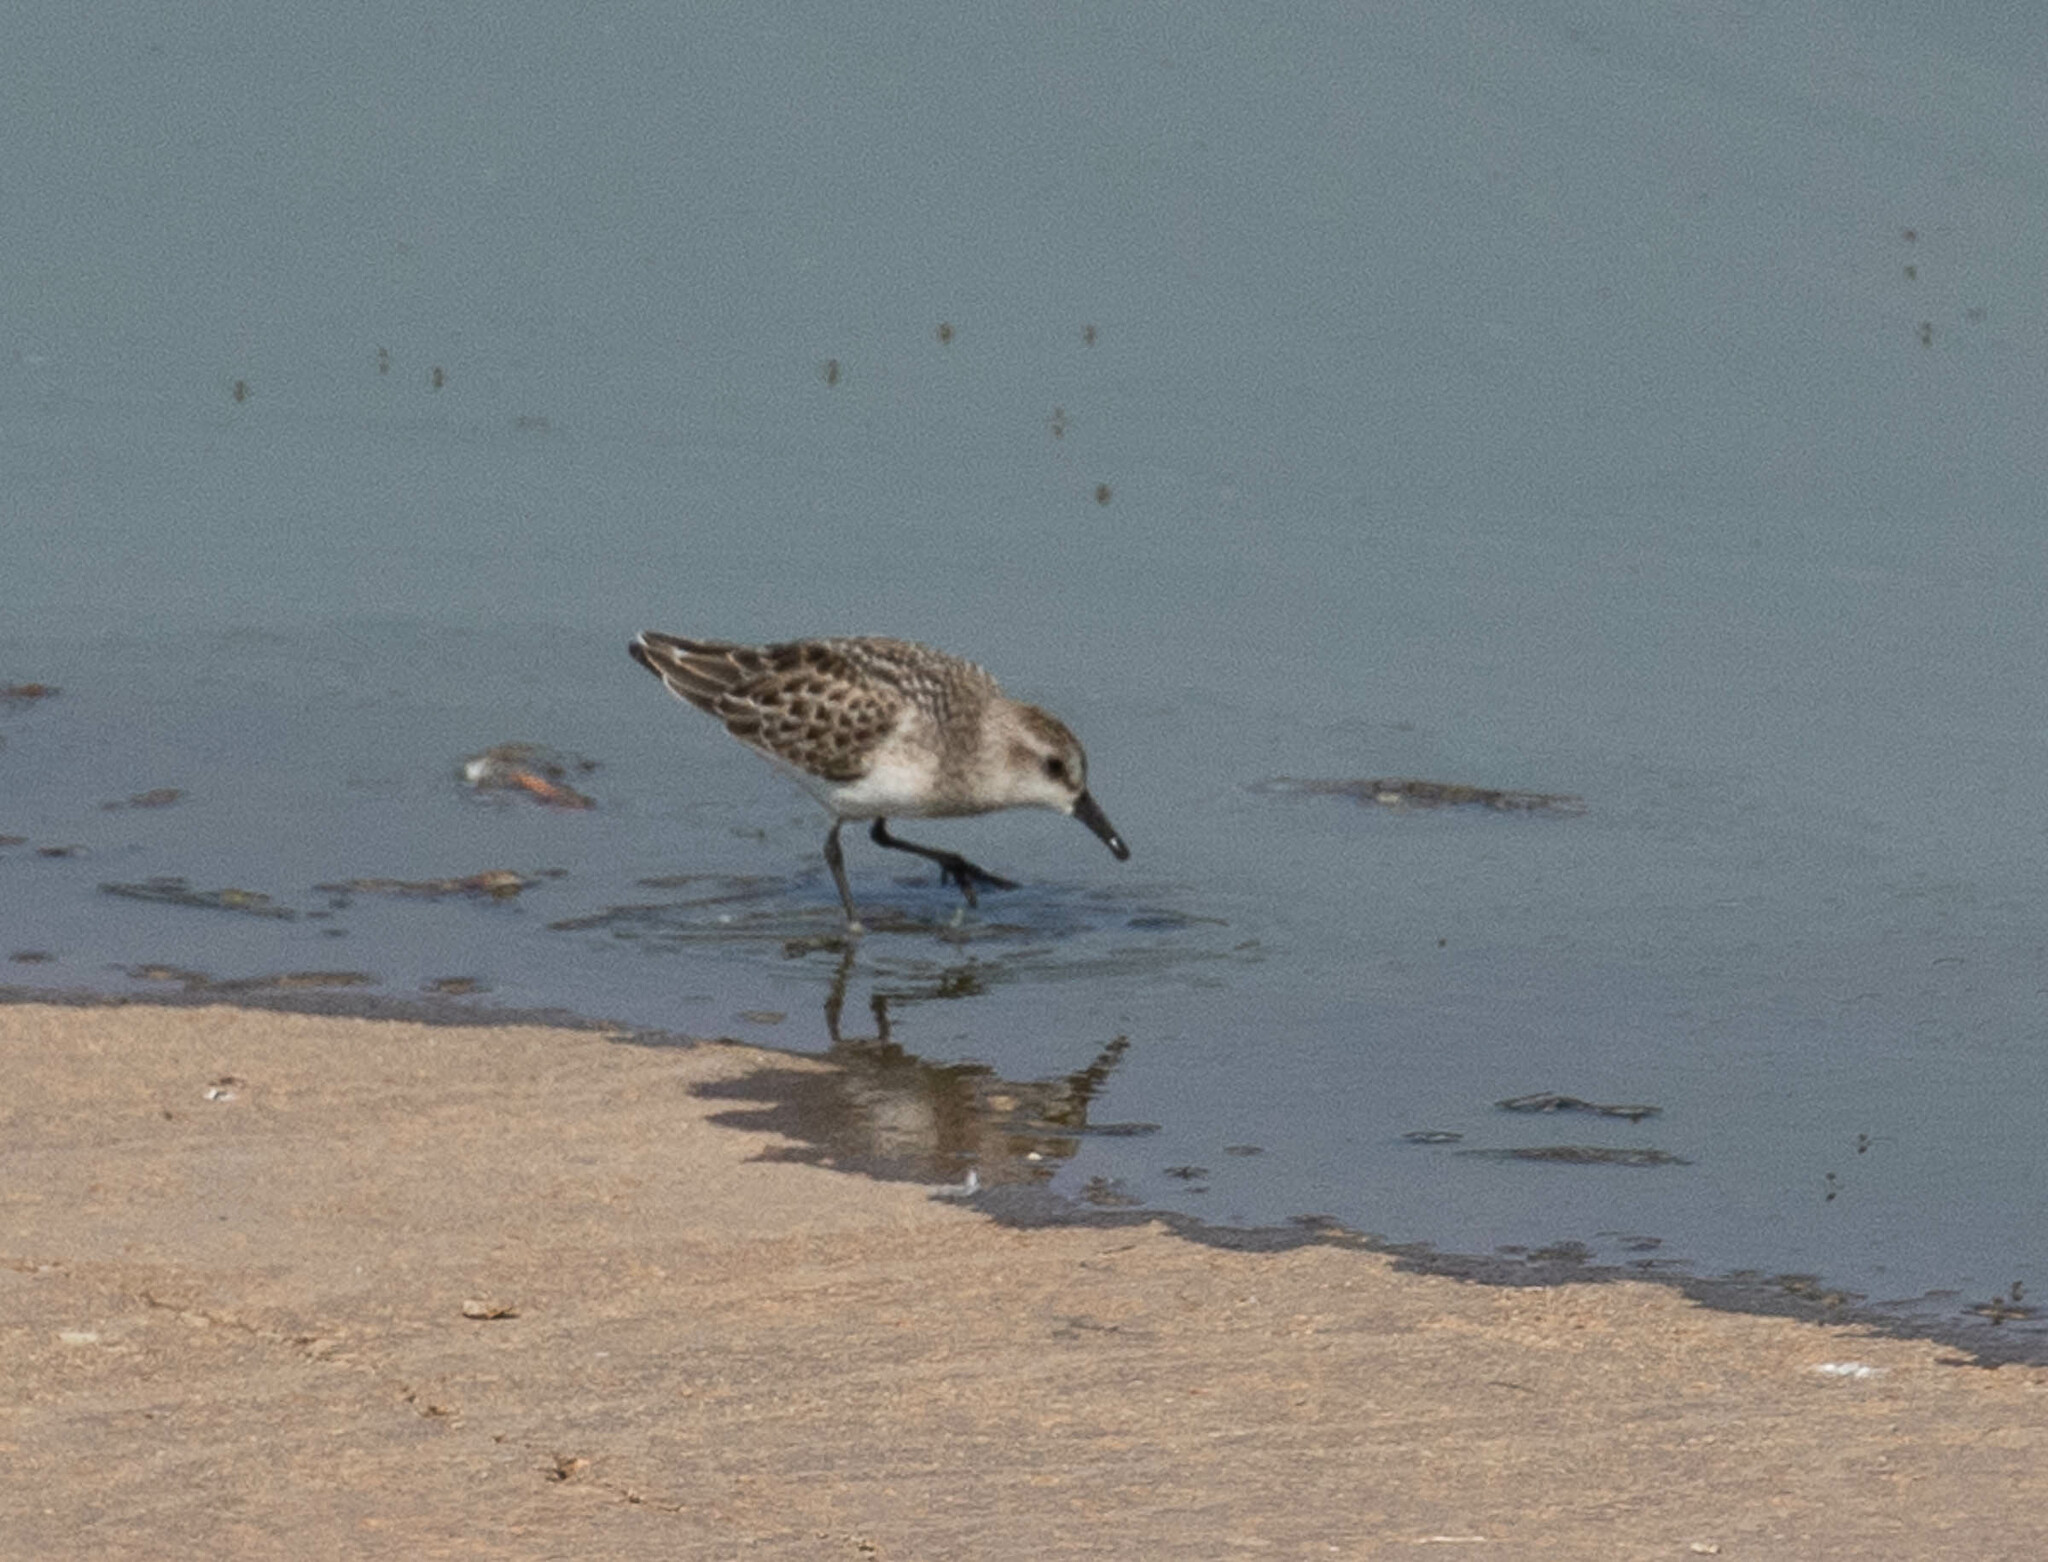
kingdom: Animalia
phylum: Chordata
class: Aves
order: Charadriiformes
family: Scolopacidae
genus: Calidris
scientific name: Calidris pusilla
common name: Semipalmated sandpiper
